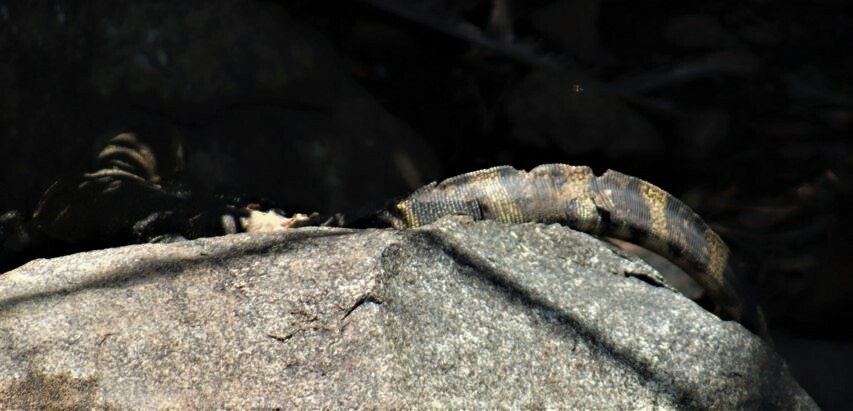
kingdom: Animalia
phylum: Chordata
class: Squamata
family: Varanidae
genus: Varanus
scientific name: Varanus niloticus
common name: Nile monitor
